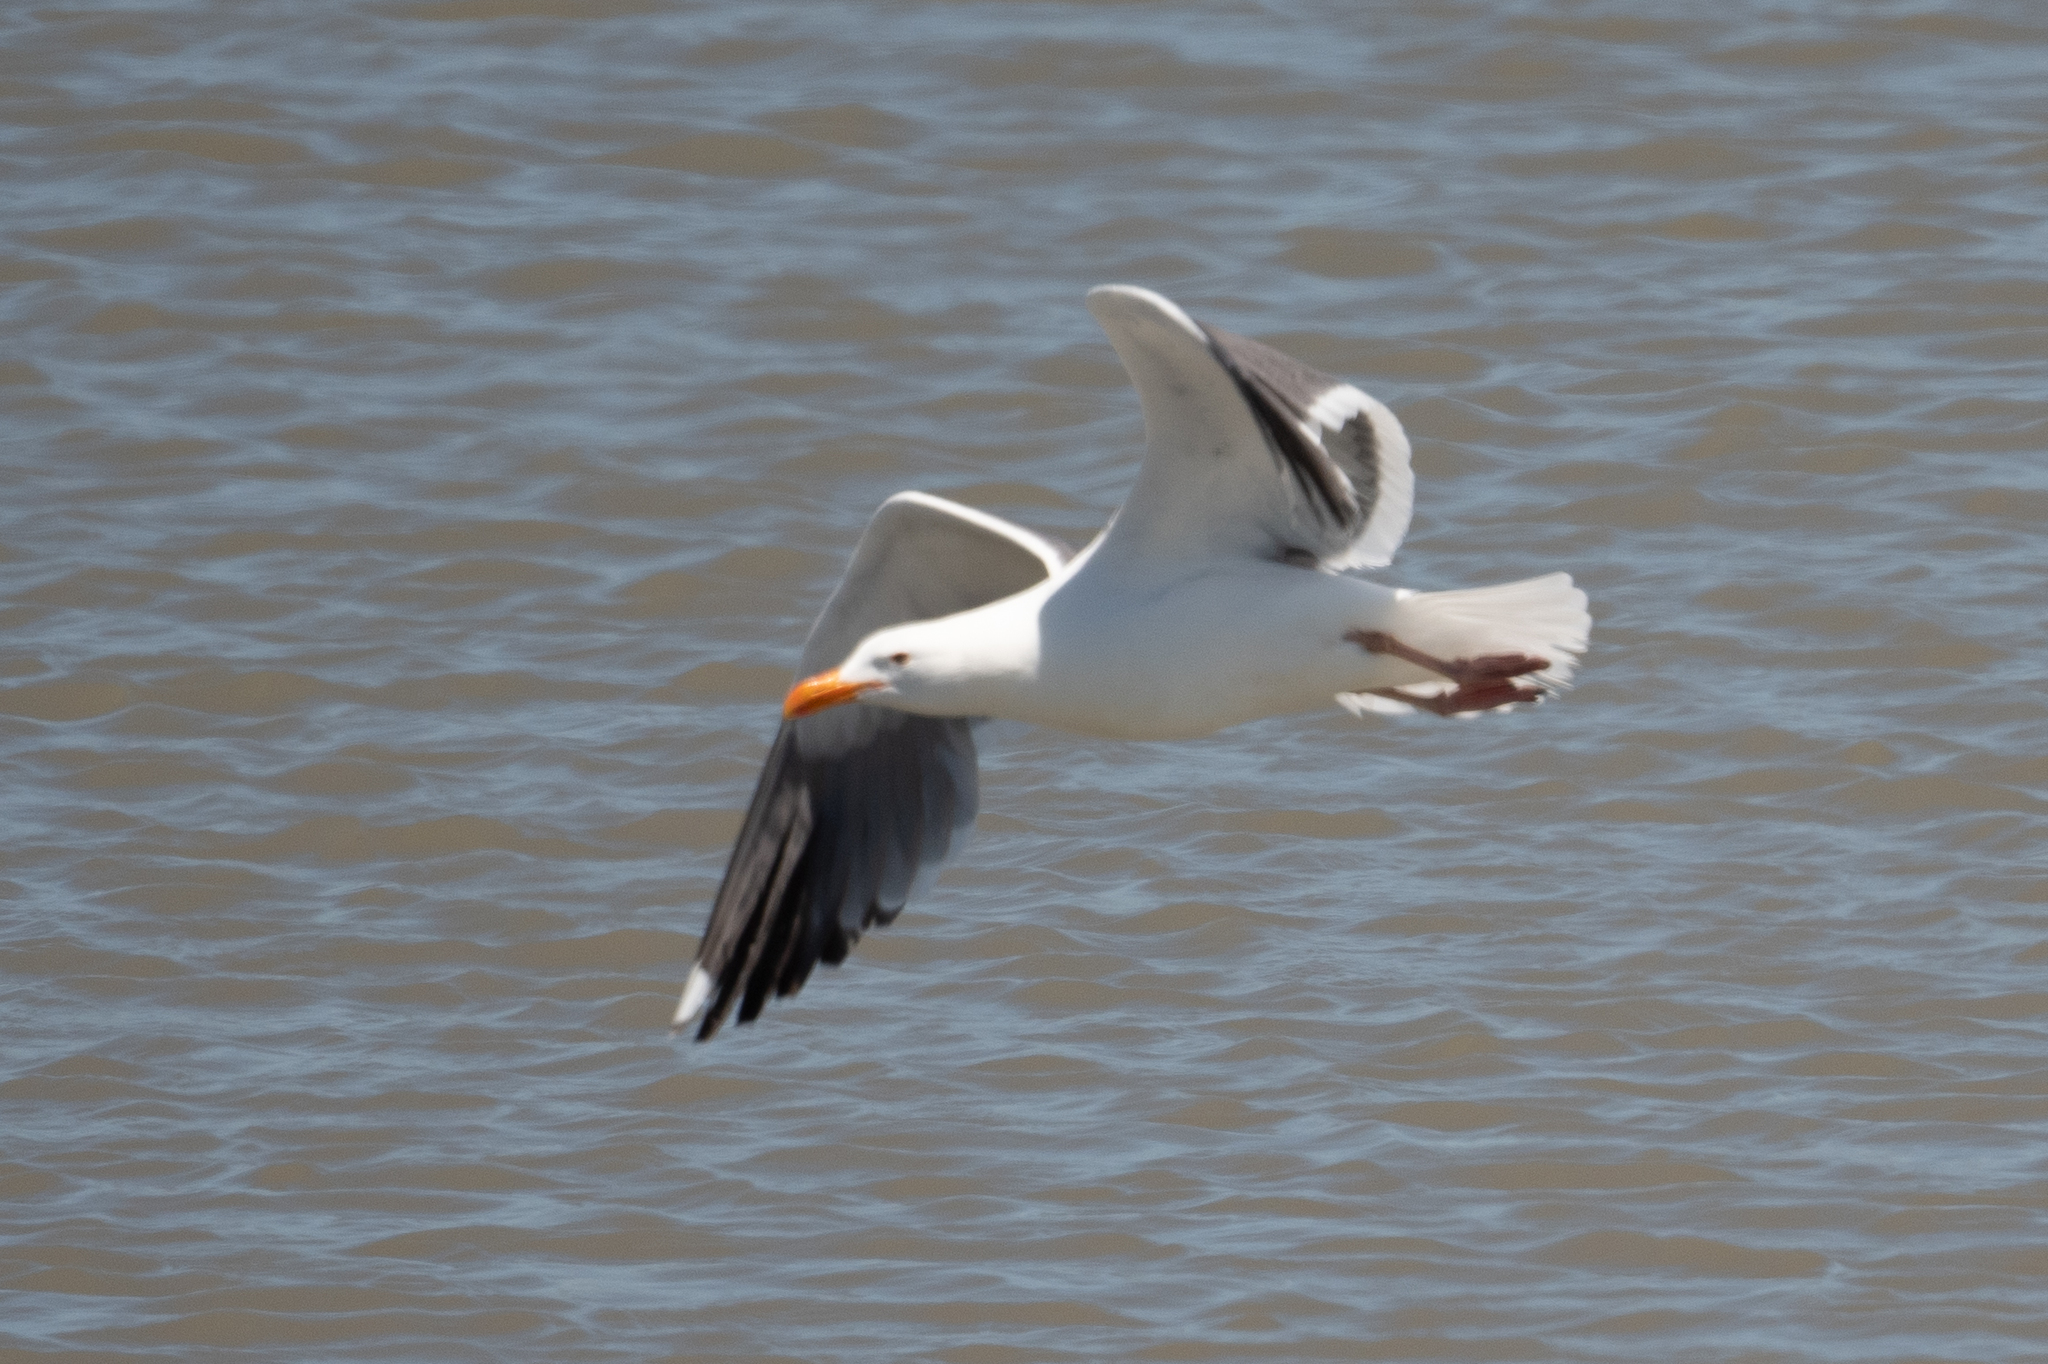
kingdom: Animalia
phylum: Chordata
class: Aves
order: Charadriiformes
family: Laridae
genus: Larus
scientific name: Larus occidentalis
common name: Western gull
